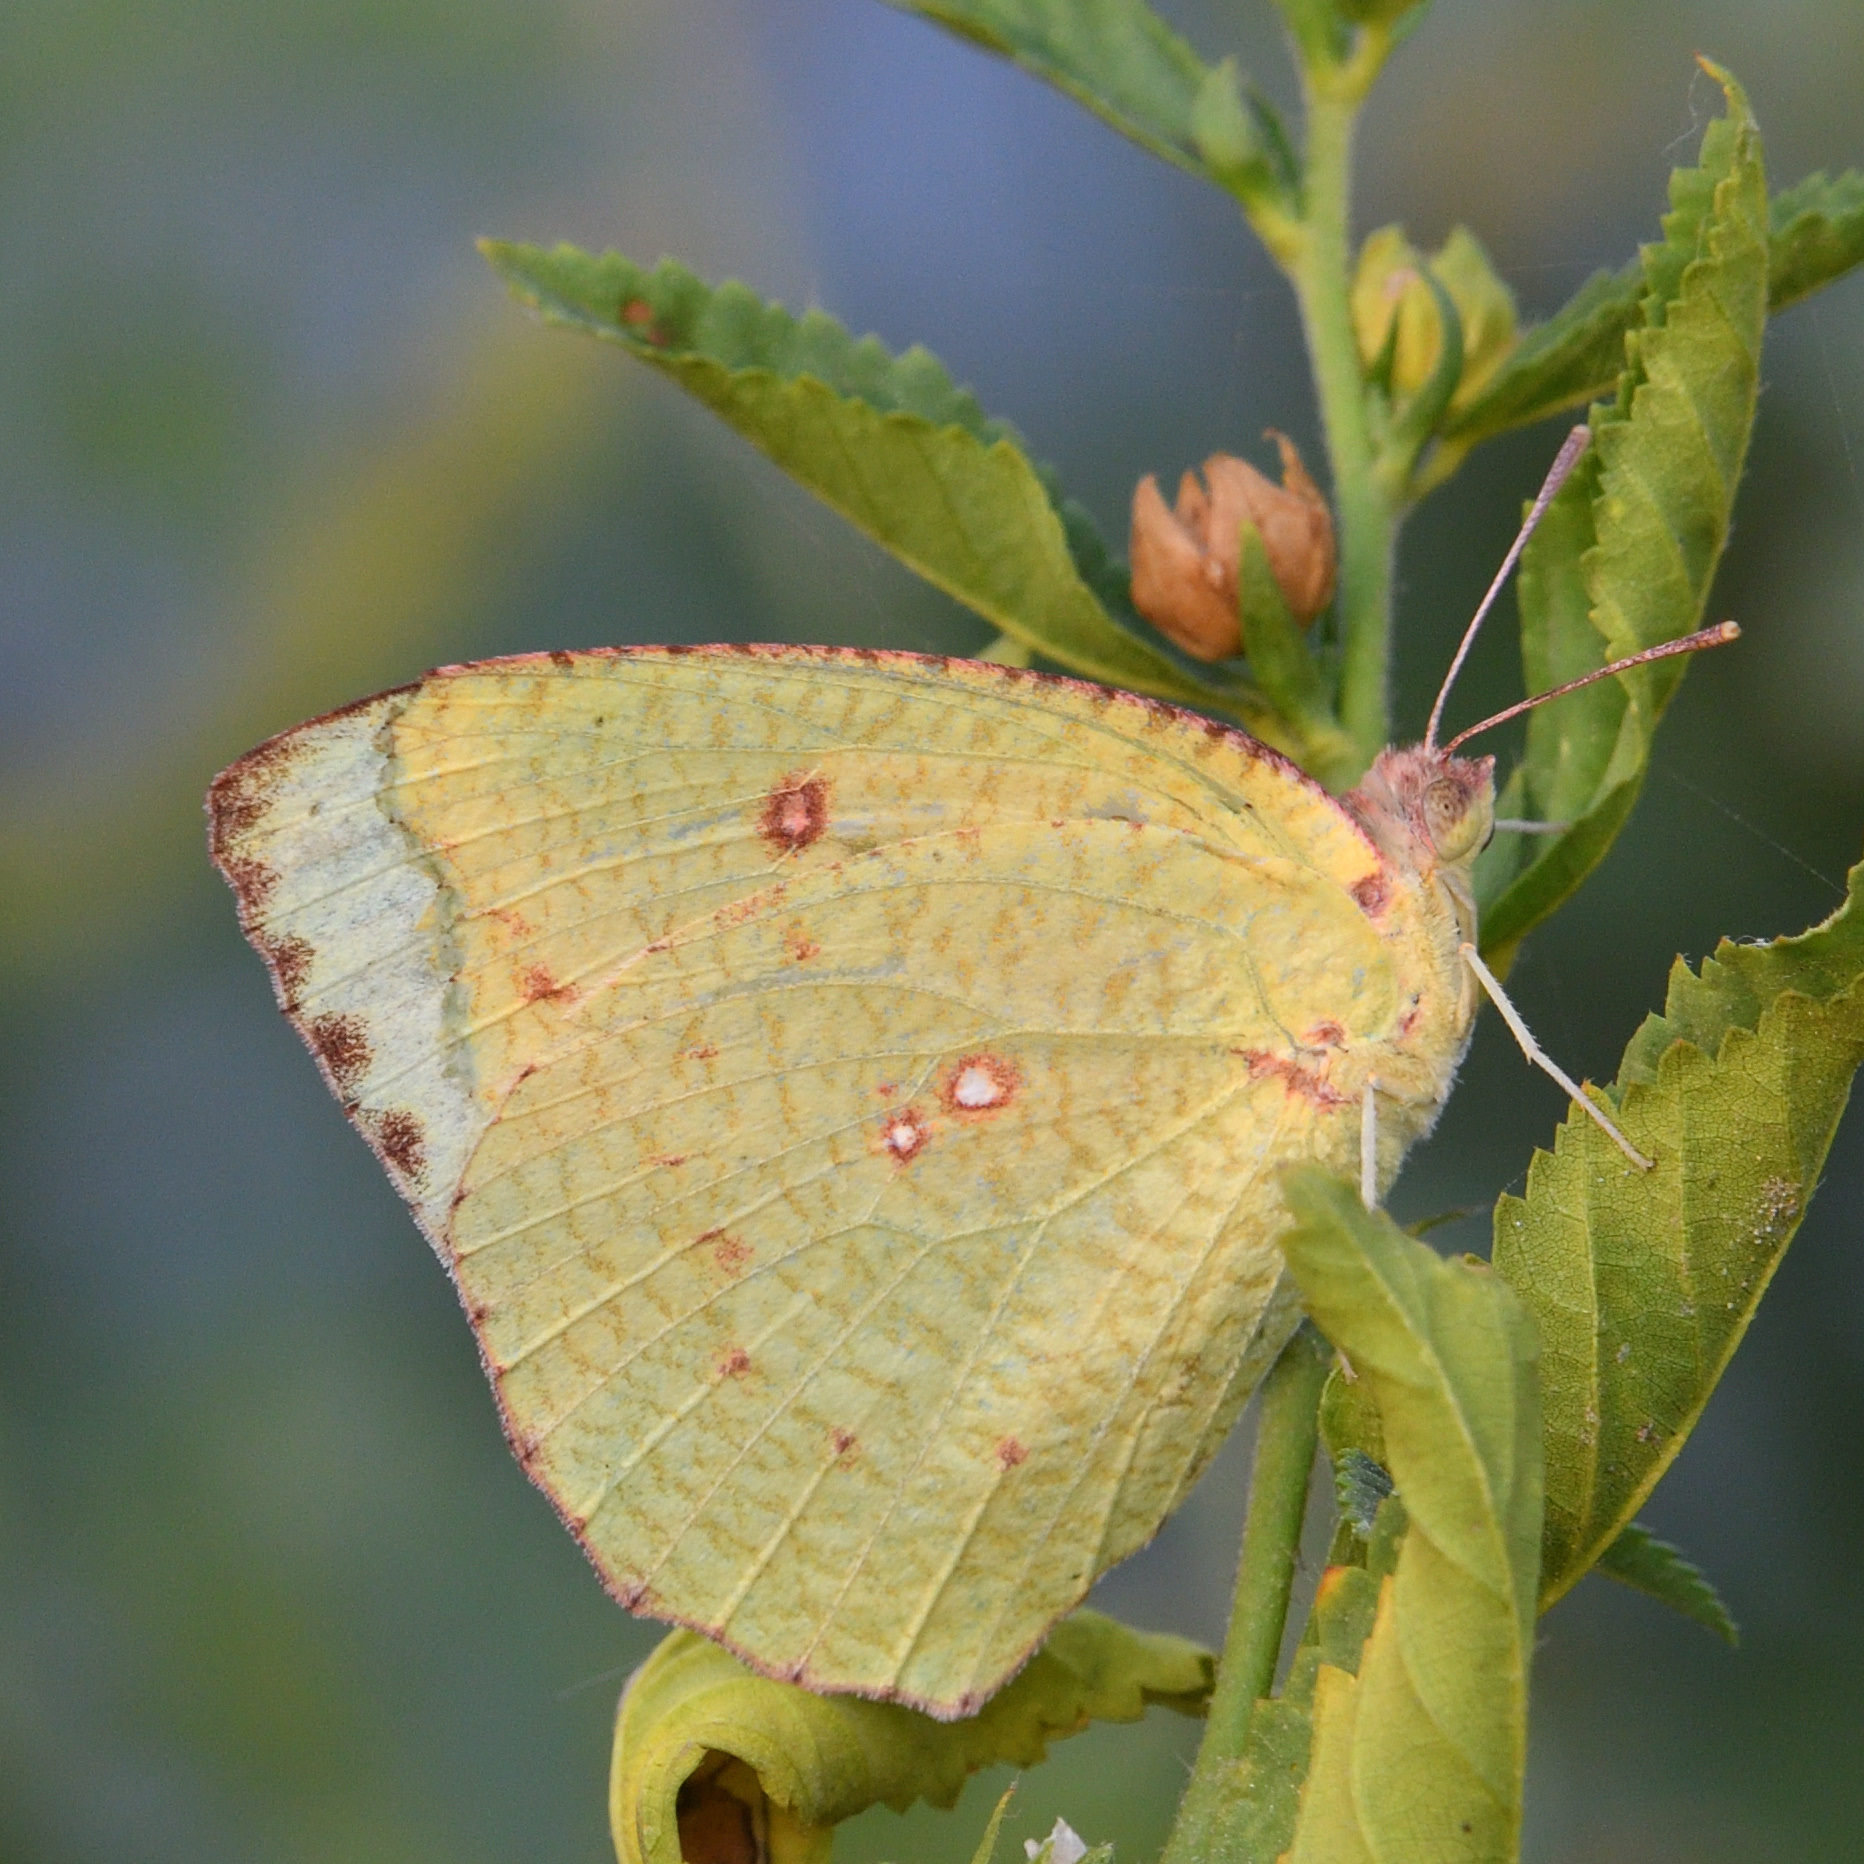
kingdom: Animalia
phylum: Arthropoda
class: Insecta
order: Lepidoptera
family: Pieridae
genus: Catopsilia
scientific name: Catopsilia pyranthe
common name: Mottled emigrant
